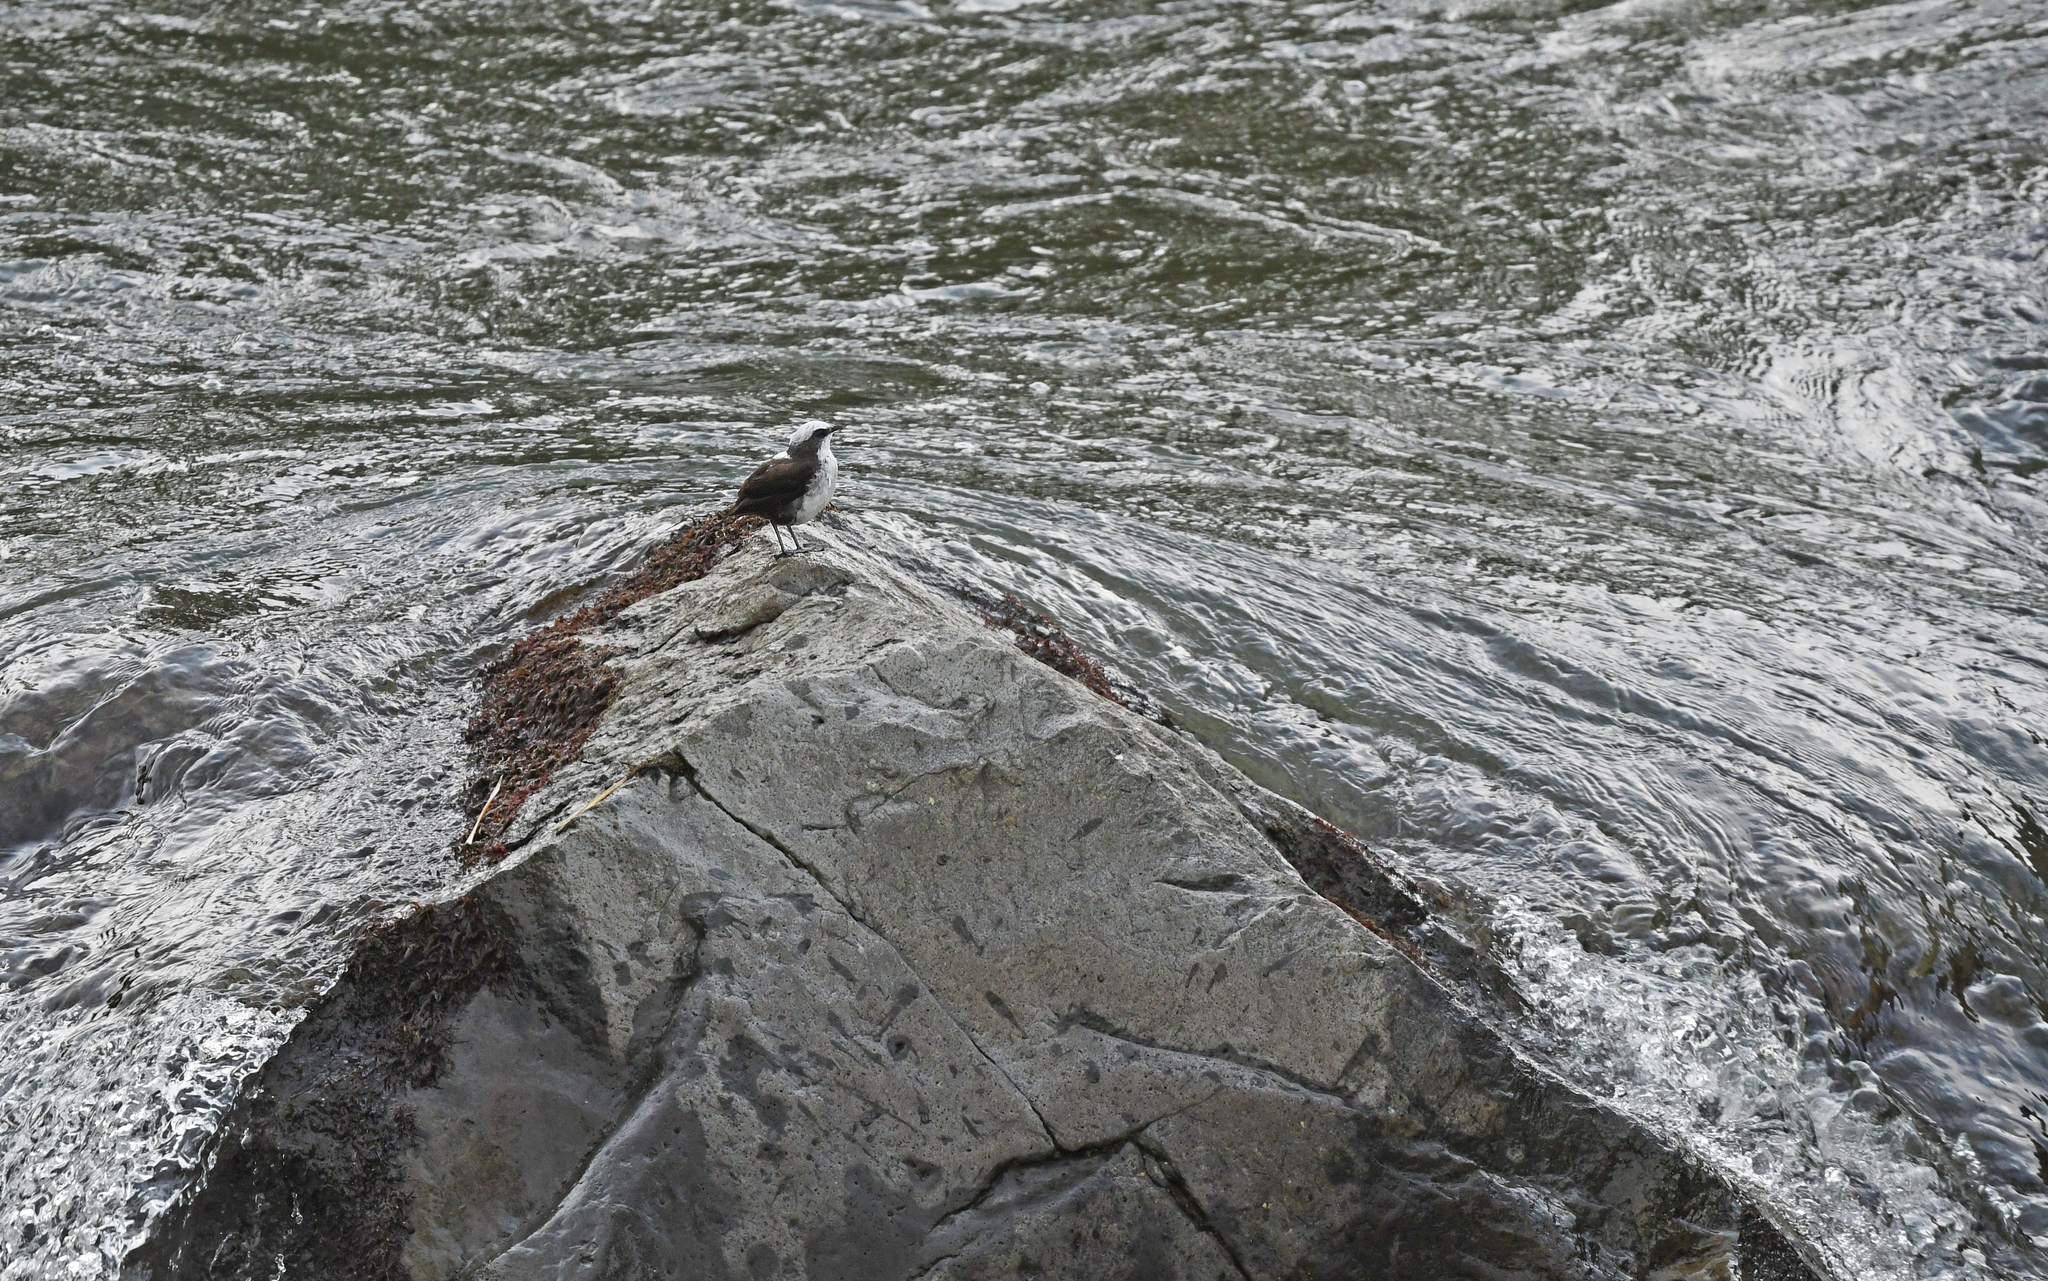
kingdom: Animalia
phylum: Chordata
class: Aves
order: Passeriformes
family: Cinclidae
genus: Cinclus
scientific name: Cinclus leucocephalus
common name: White-capped dipper
